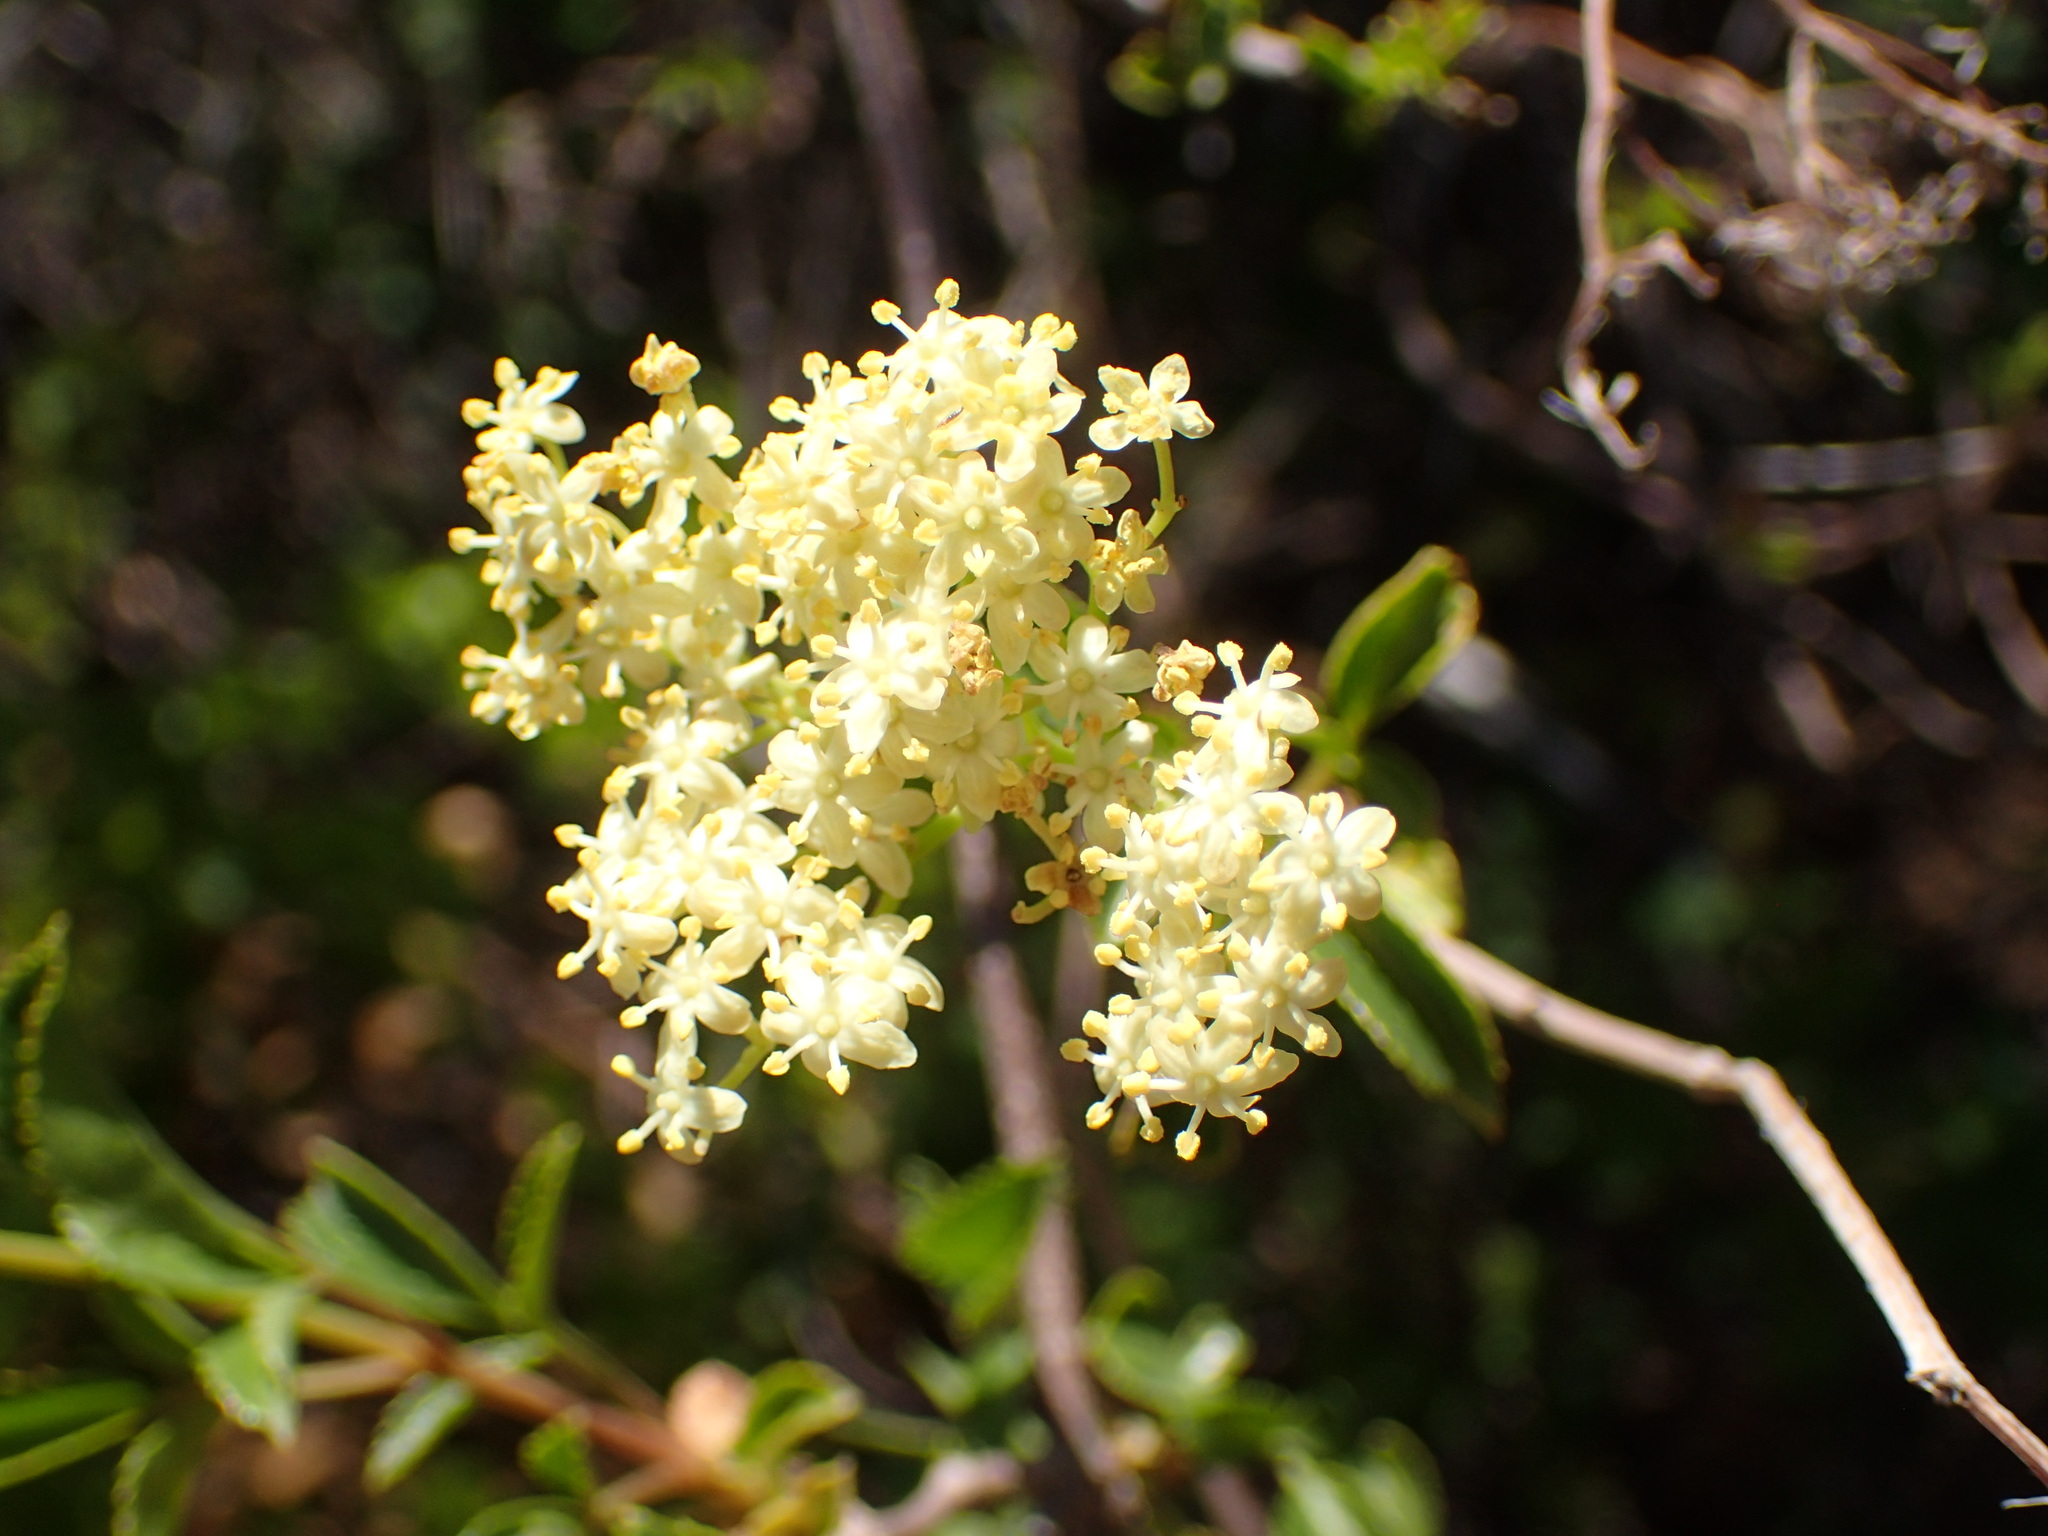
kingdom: Plantae
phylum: Tracheophyta
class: Magnoliopsida
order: Dipsacales
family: Viburnaceae
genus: Sambucus
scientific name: Sambucus cerulea
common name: Blue elder
